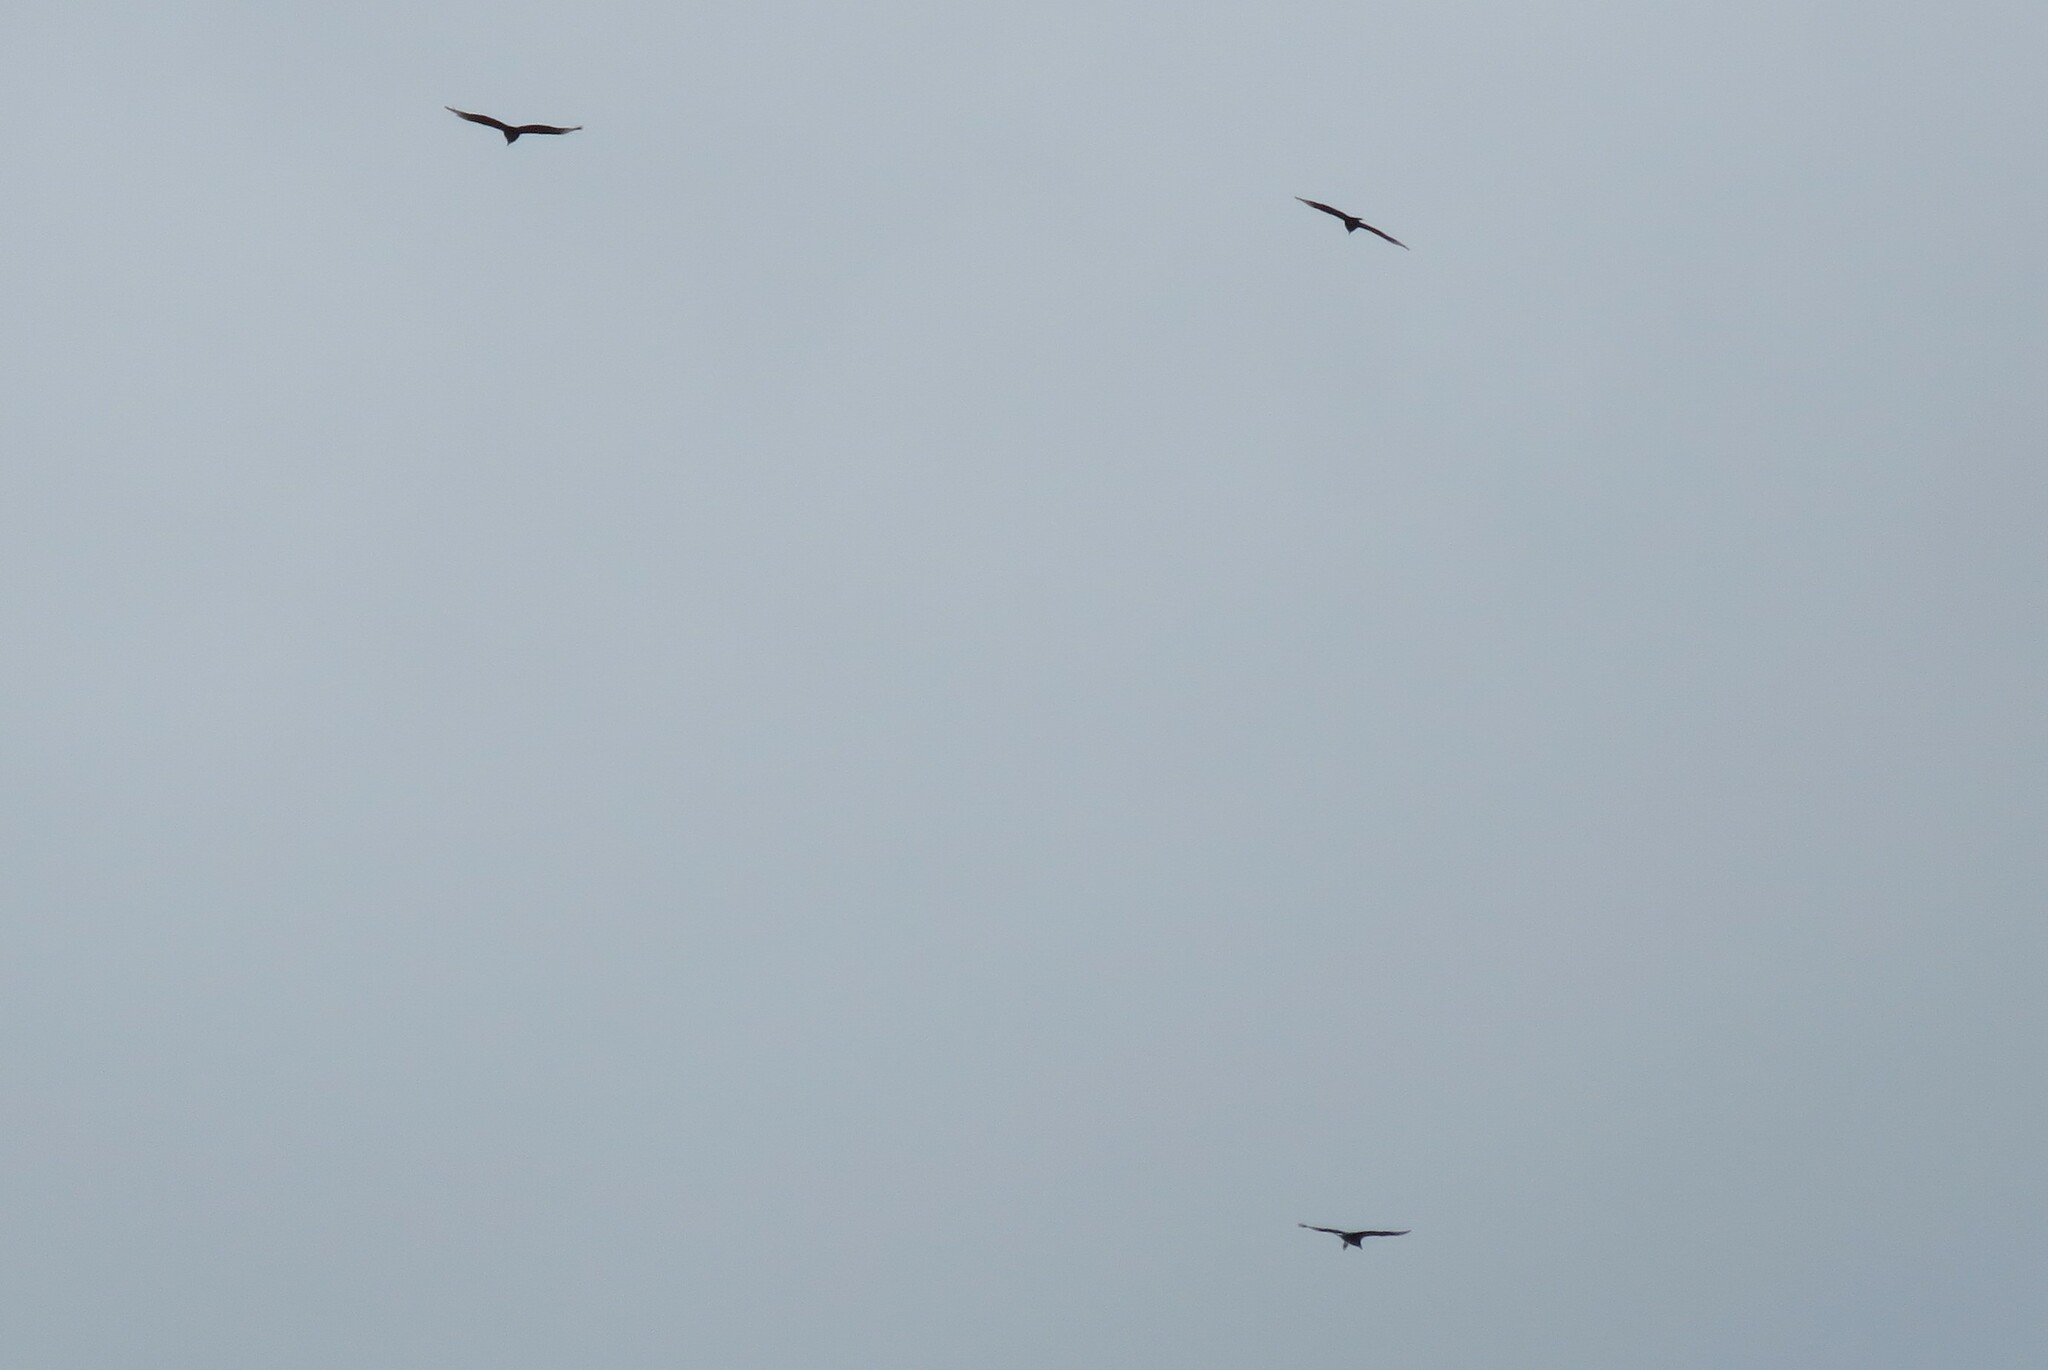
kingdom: Animalia
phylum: Chordata
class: Aves
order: Accipitriformes
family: Cathartidae
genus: Coragyps
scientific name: Coragyps atratus
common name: Black vulture
